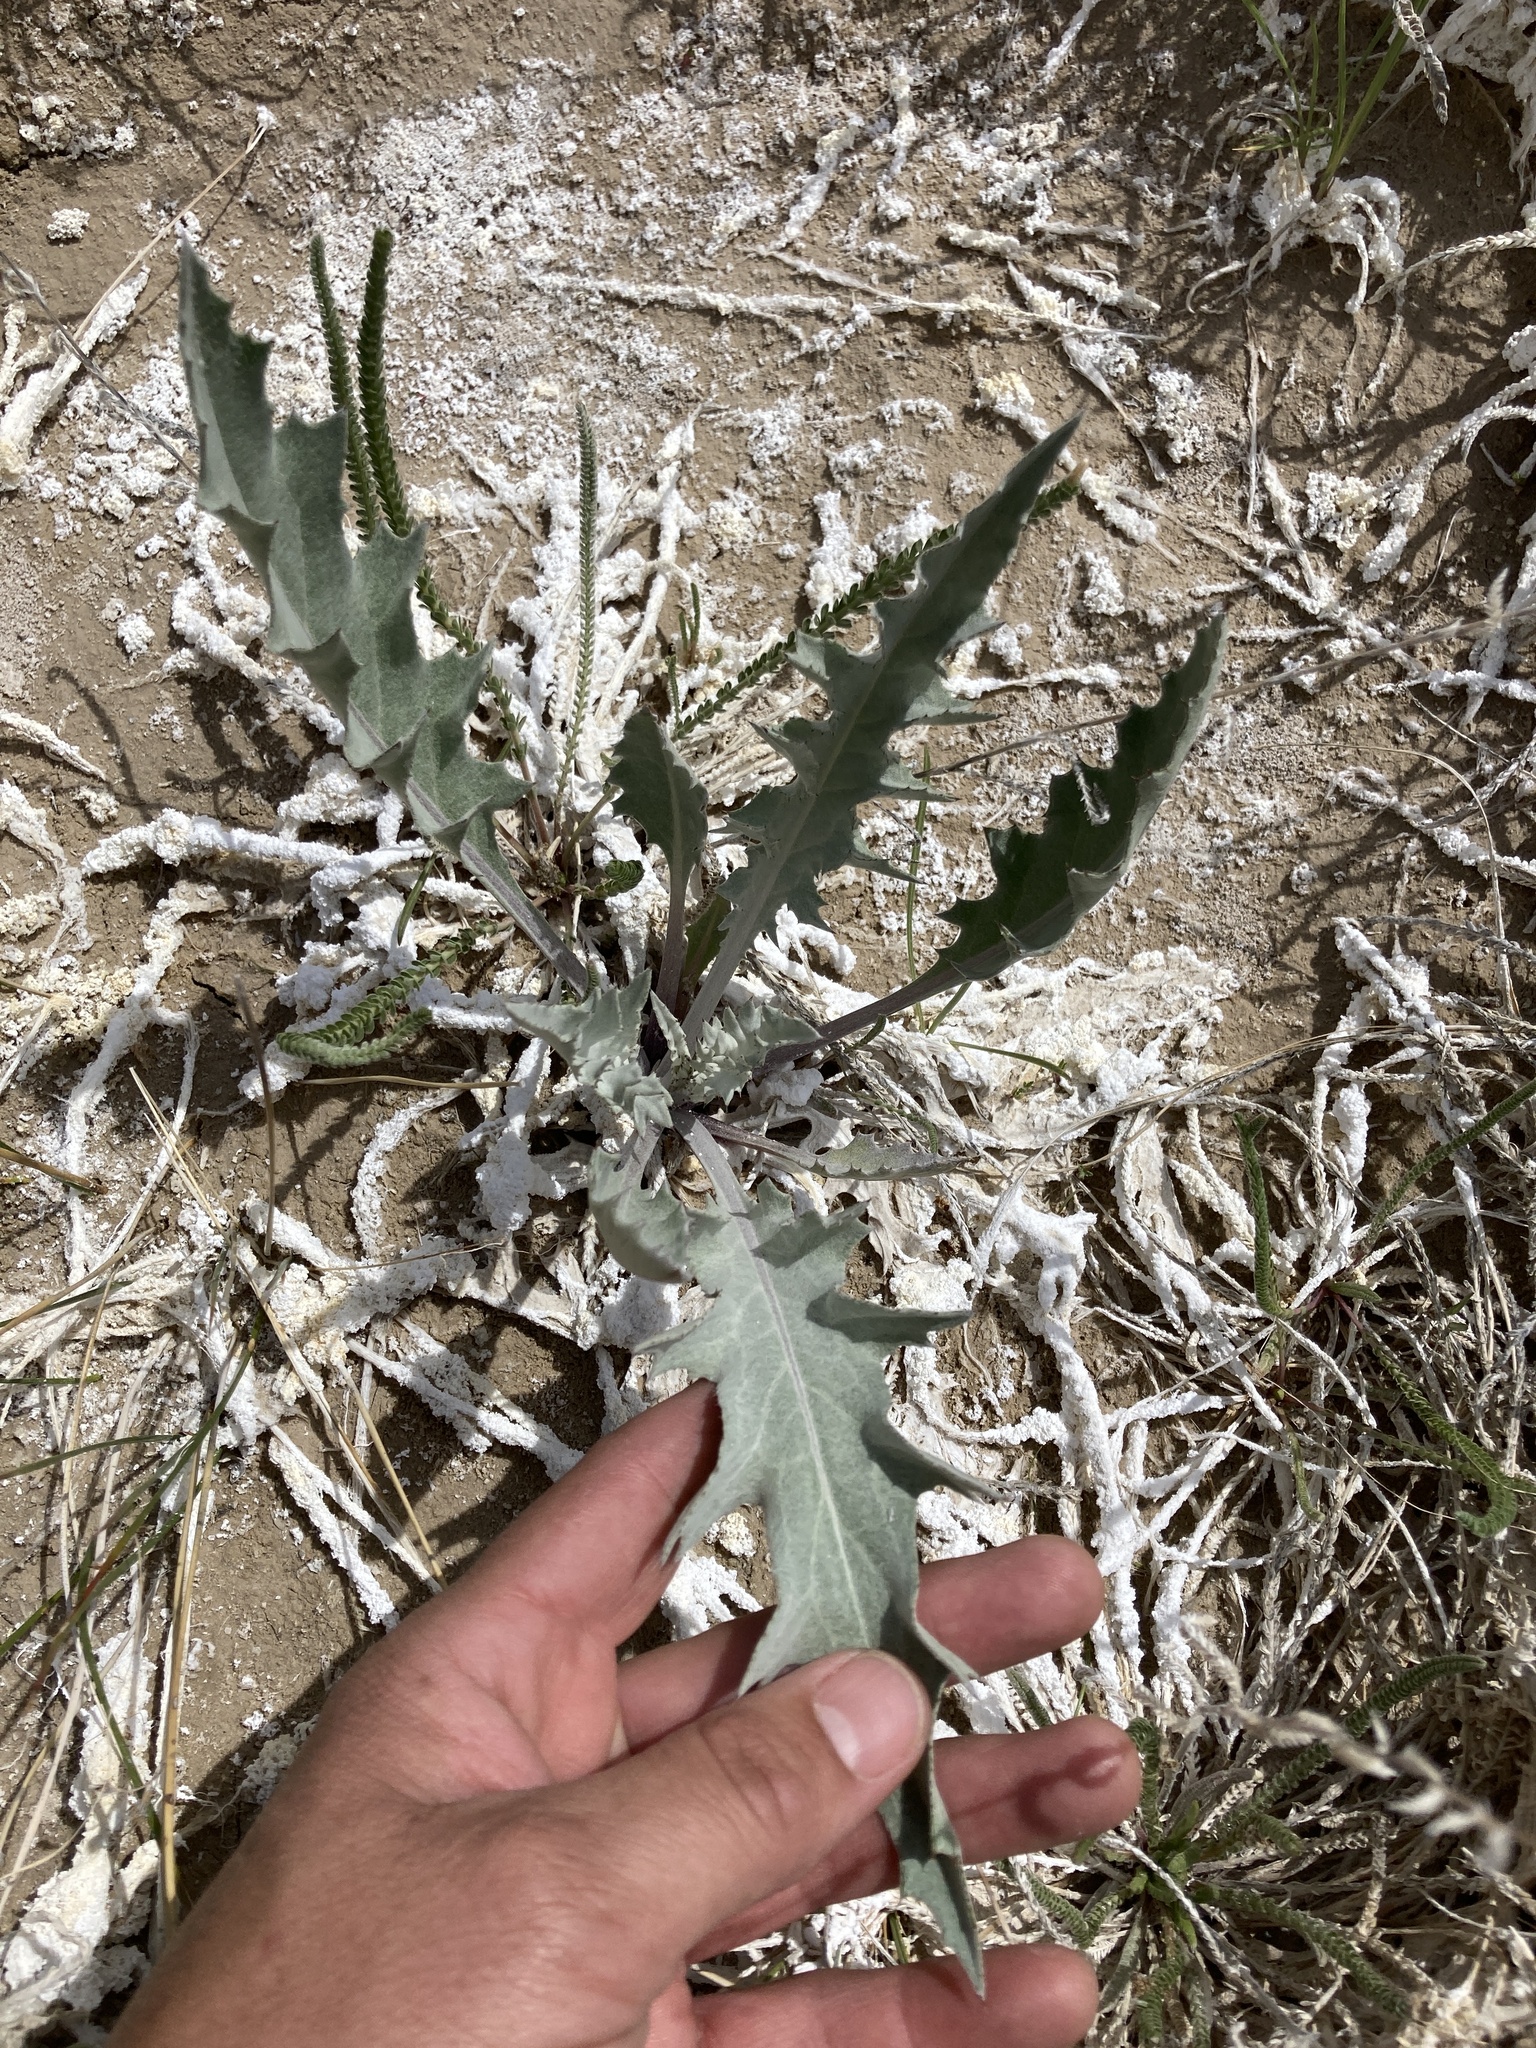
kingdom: Plantae
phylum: Tracheophyta
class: Magnoliopsida
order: Asterales
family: Asteraceae
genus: Cirsium
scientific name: Cirsium mohavense
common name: Mojave thistle
